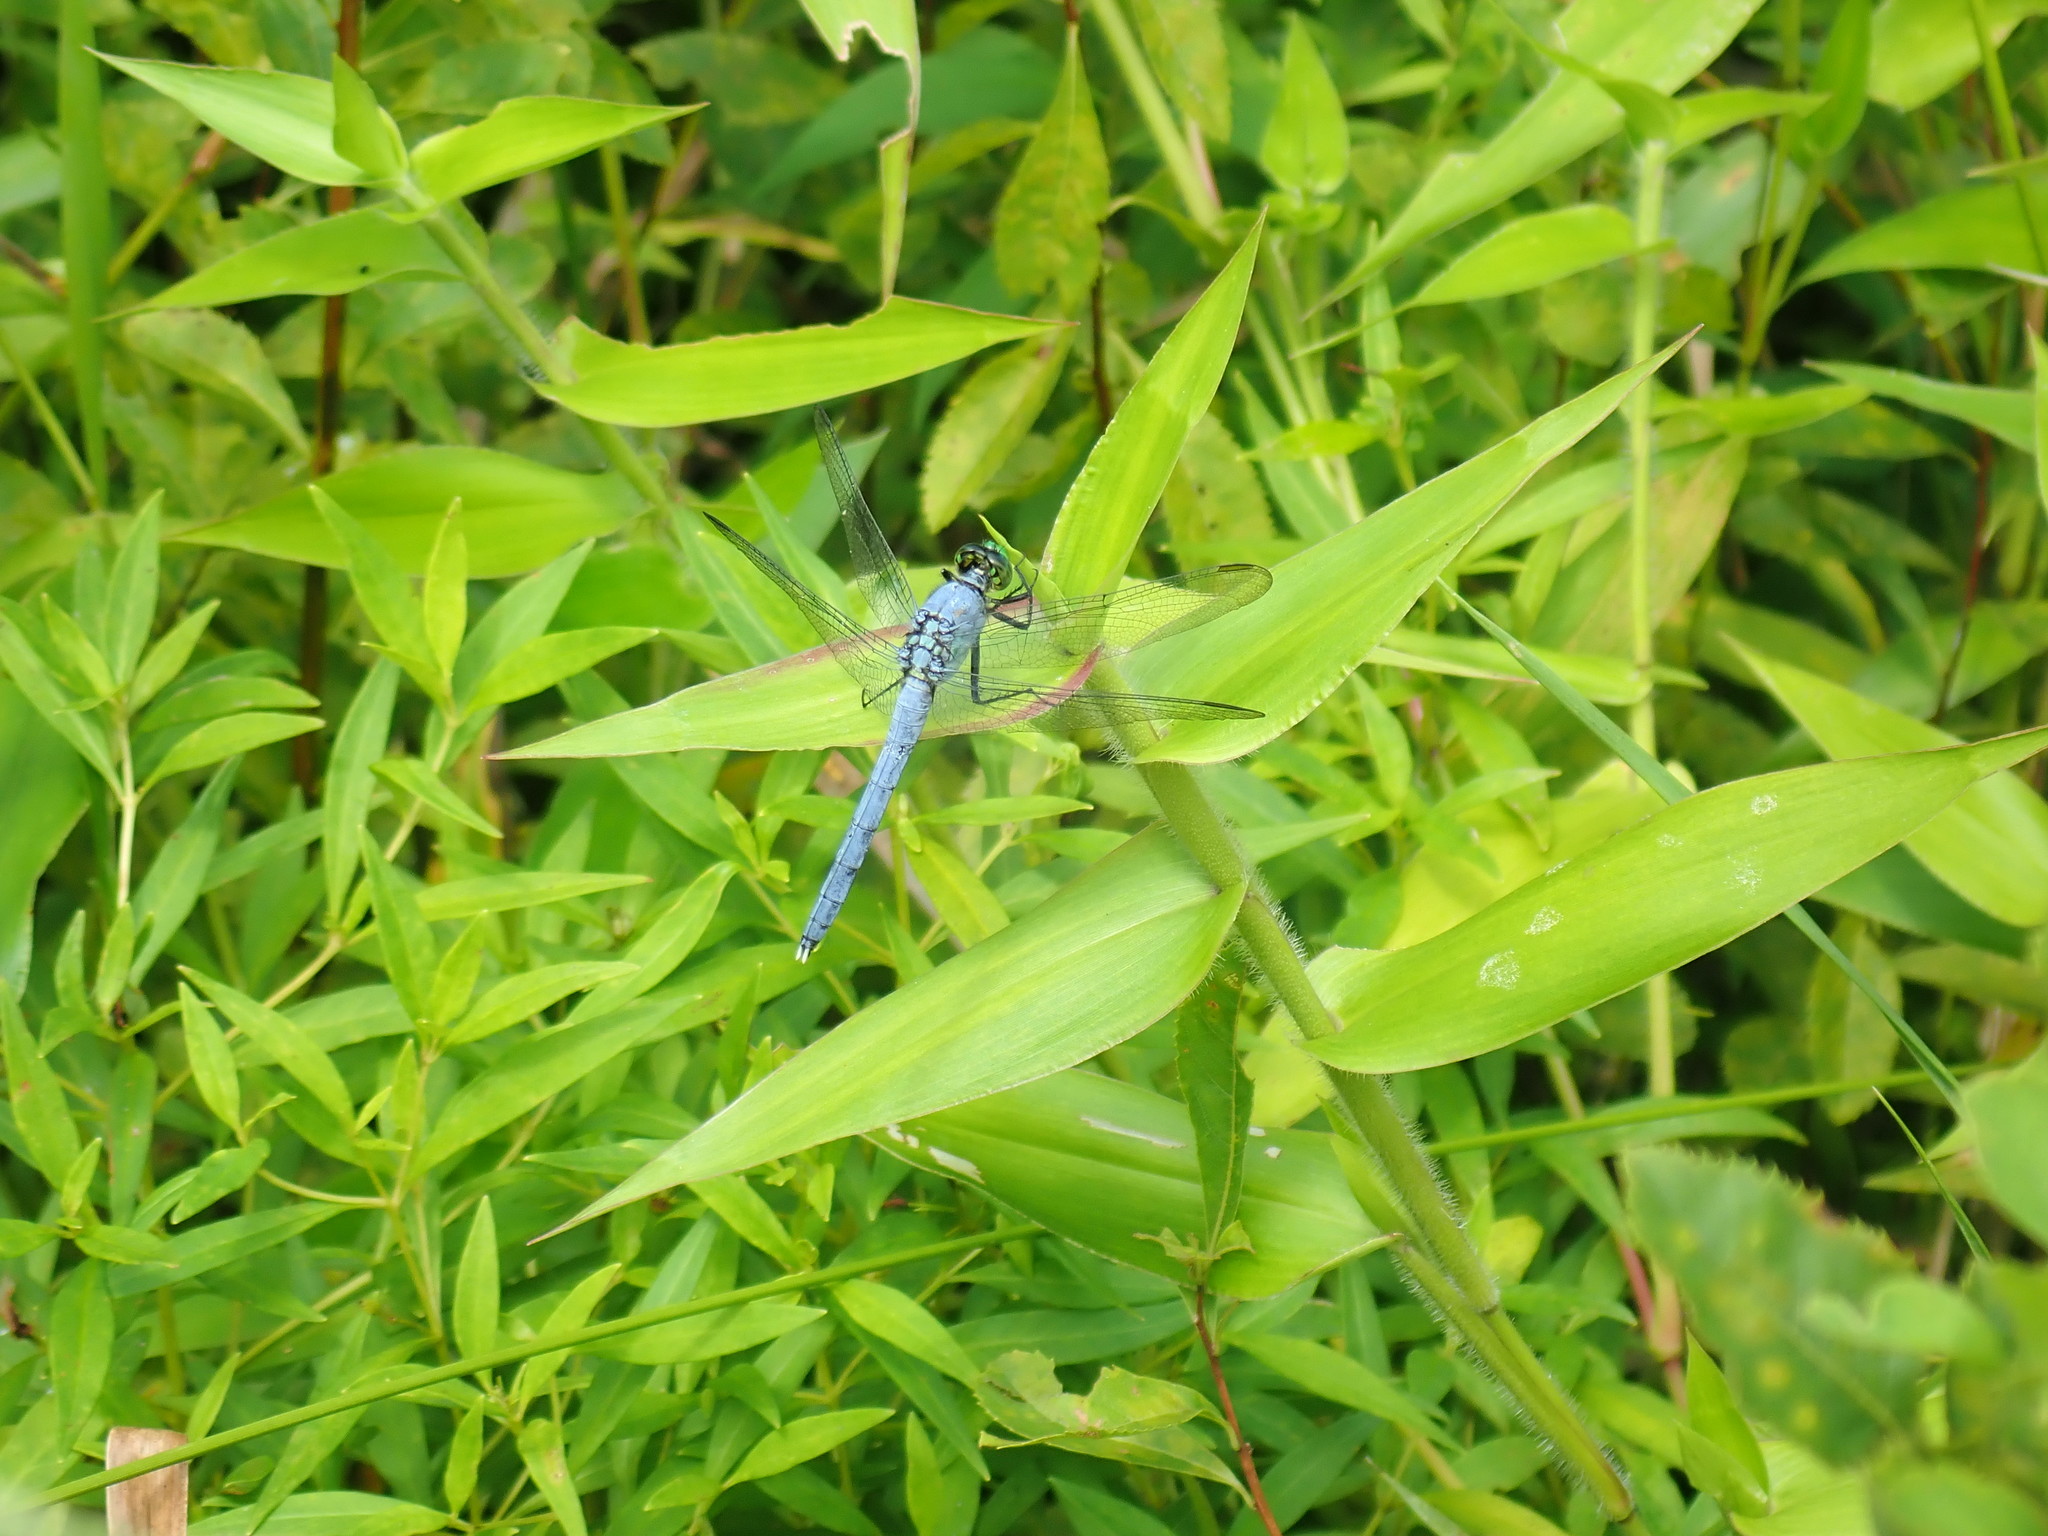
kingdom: Animalia
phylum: Arthropoda
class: Insecta
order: Odonata
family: Libellulidae
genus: Erythemis
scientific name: Erythemis simplicicollis
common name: Eastern pondhawk
